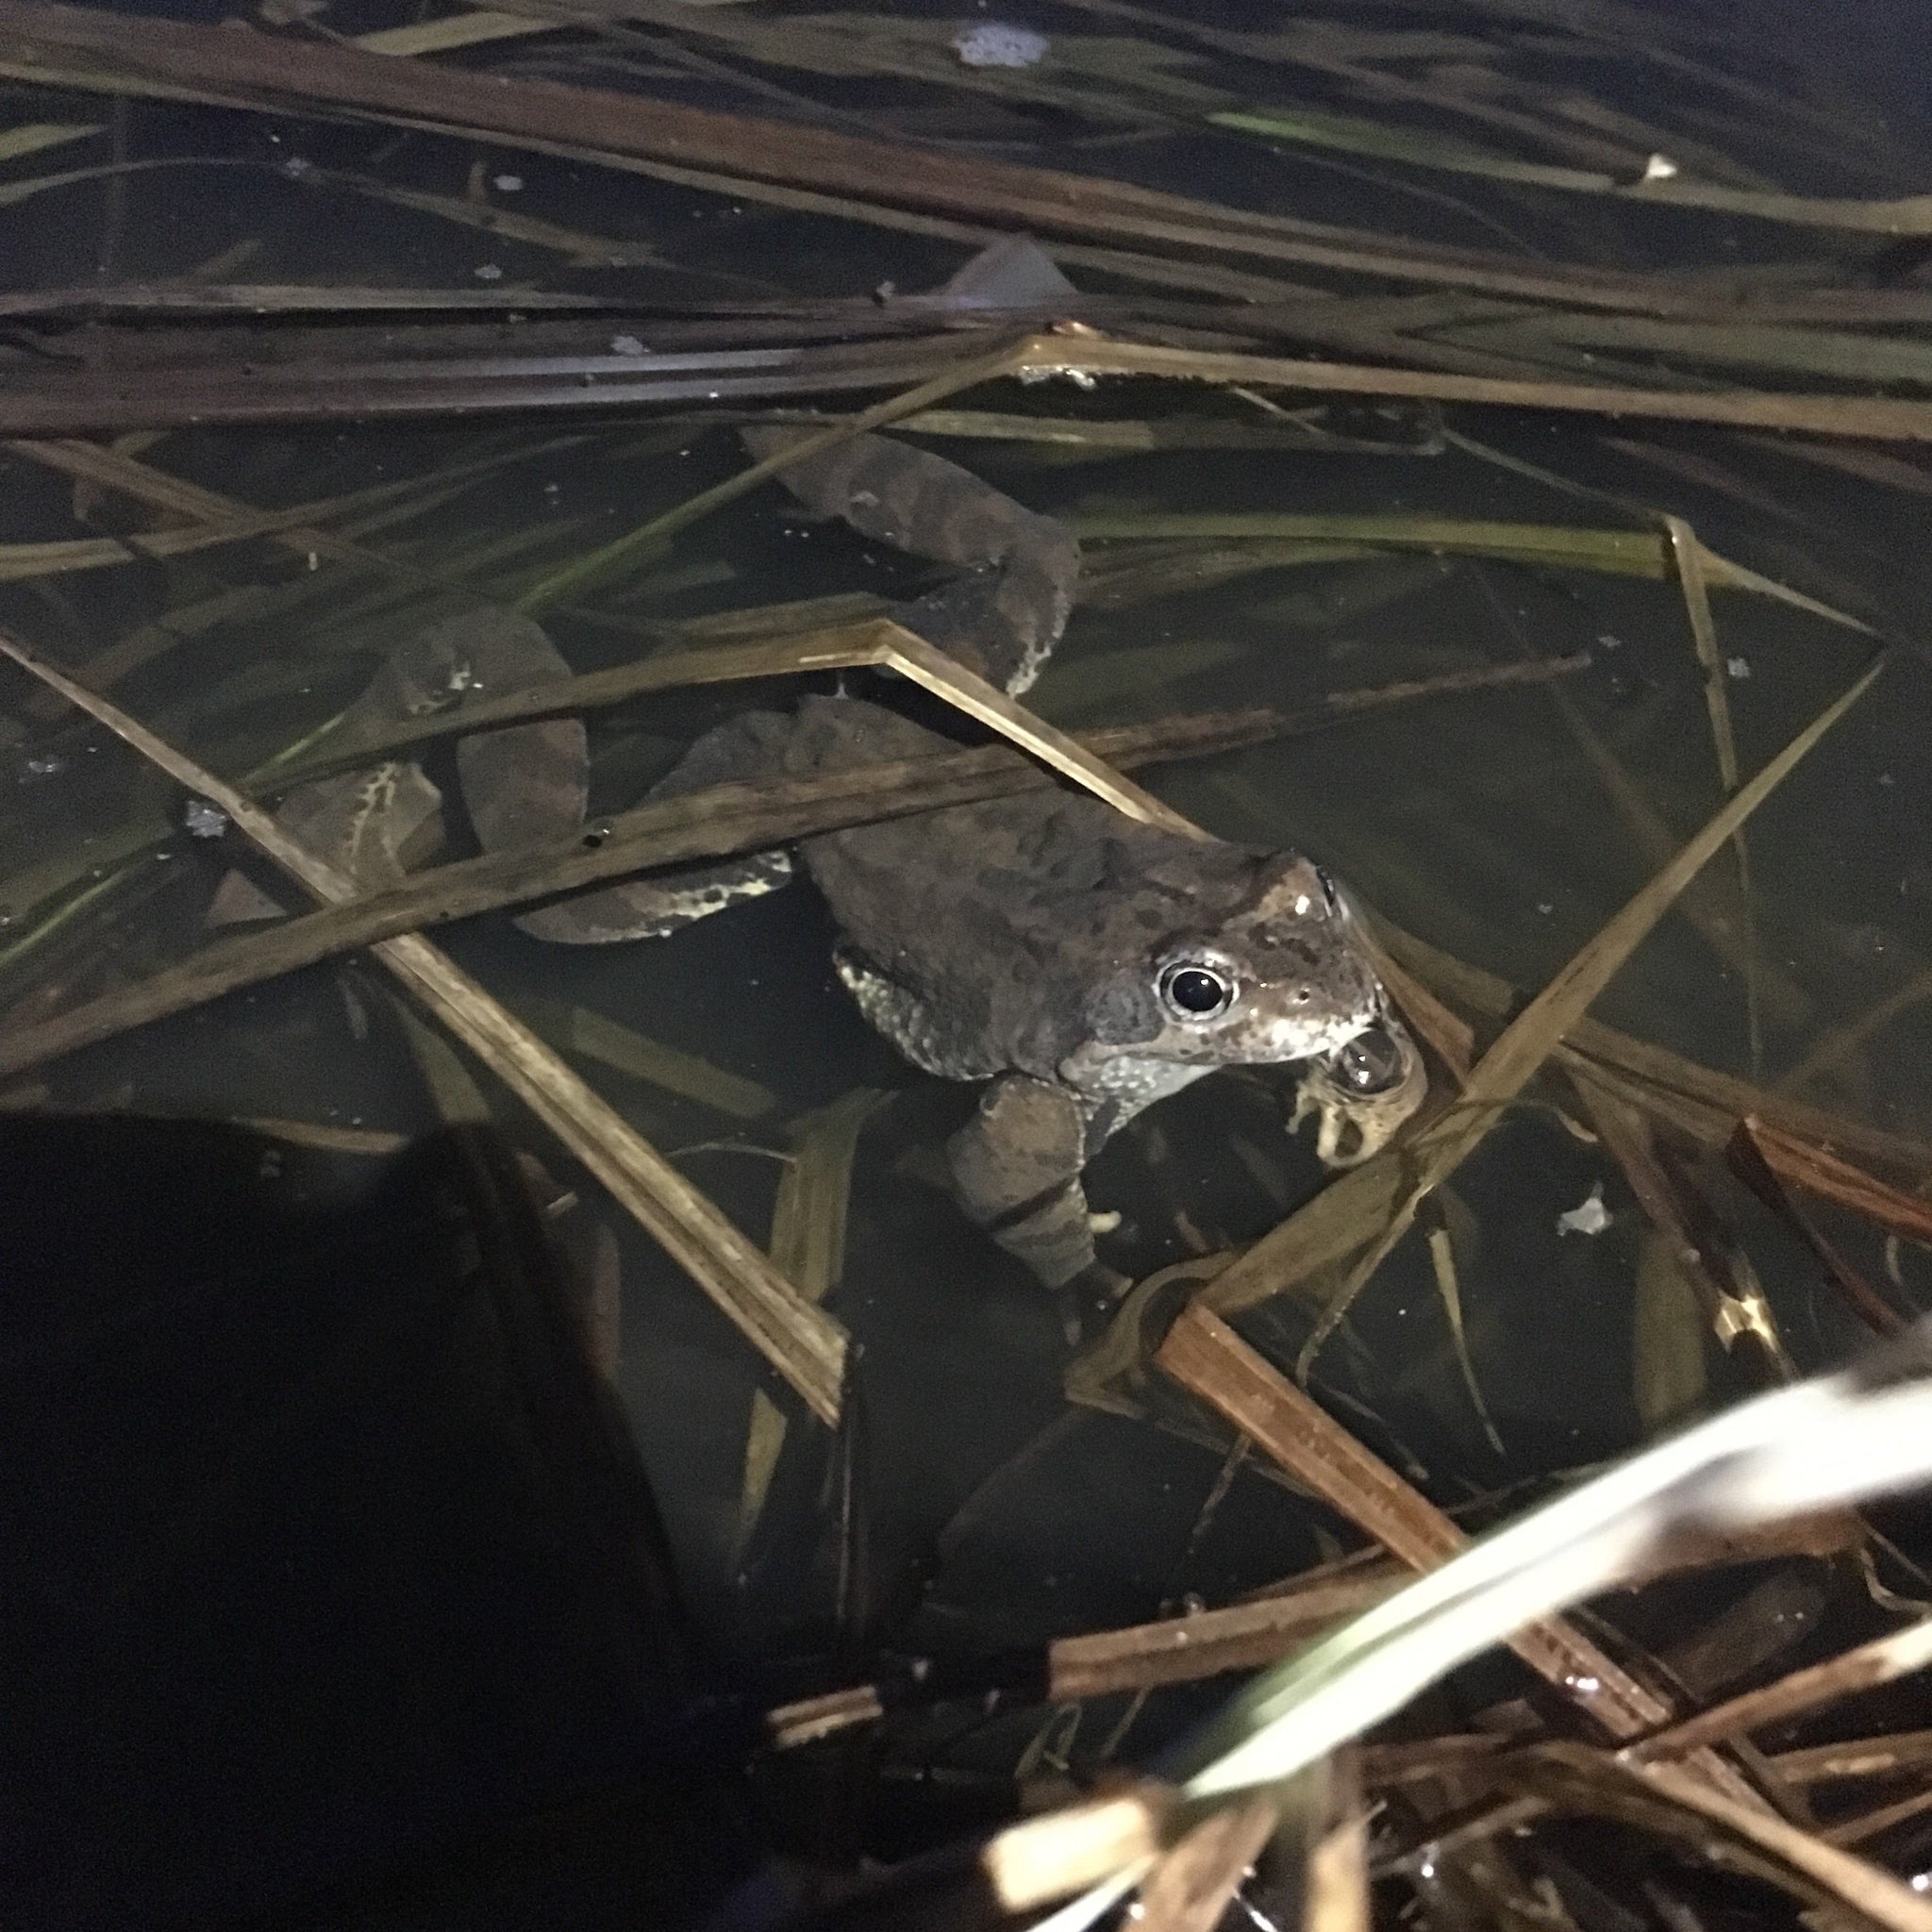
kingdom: Animalia
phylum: Chordata
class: Amphibia
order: Anura
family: Ranidae
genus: Rana
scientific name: Rana temporaria
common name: Common frog
